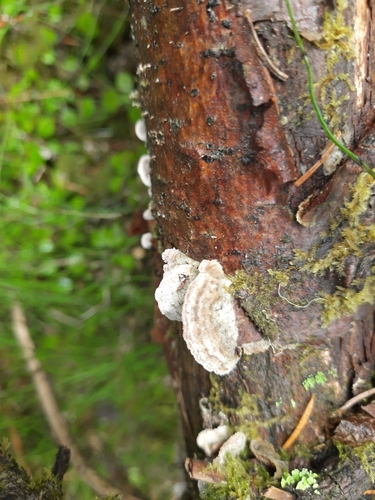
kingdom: Fungi
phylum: Basidiomycota
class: Agaricomycetes
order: Hymenochaetales
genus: Trichaptum
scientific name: Trichaptum biforme
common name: Violet-toothed polypore
